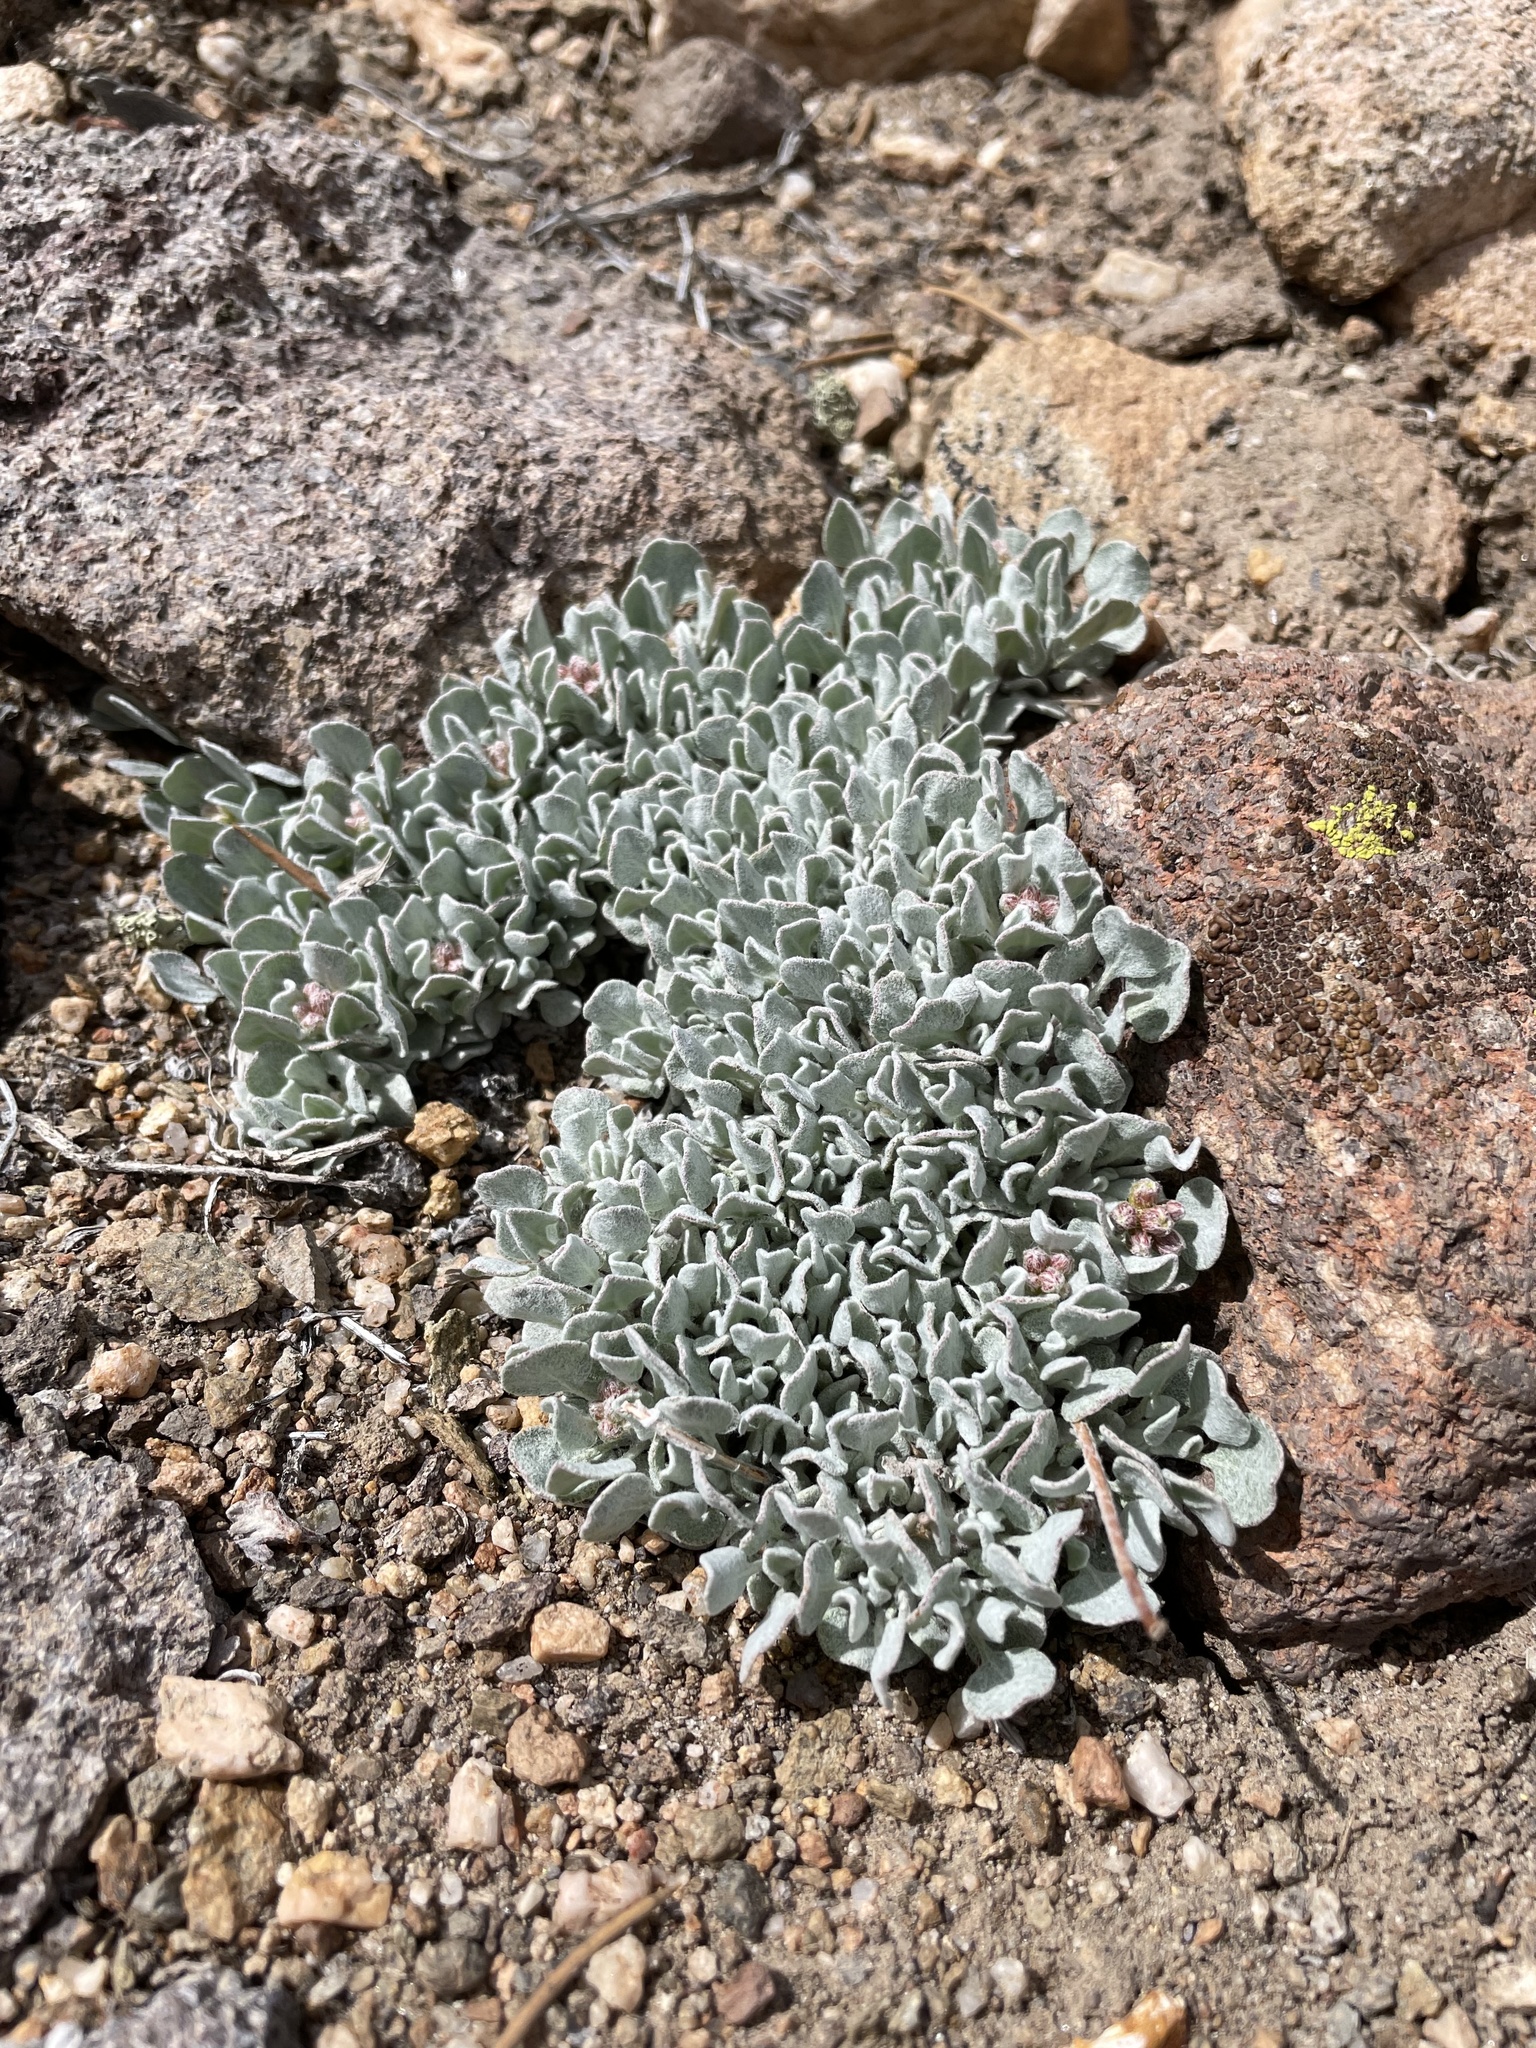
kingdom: Plantae
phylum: Tracheophyta
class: Magnoliopsida
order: Caryophyllales
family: Polygonaceae
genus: Eriogonum
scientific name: Eriogonum ovalifolium
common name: Cushion buckwheat
